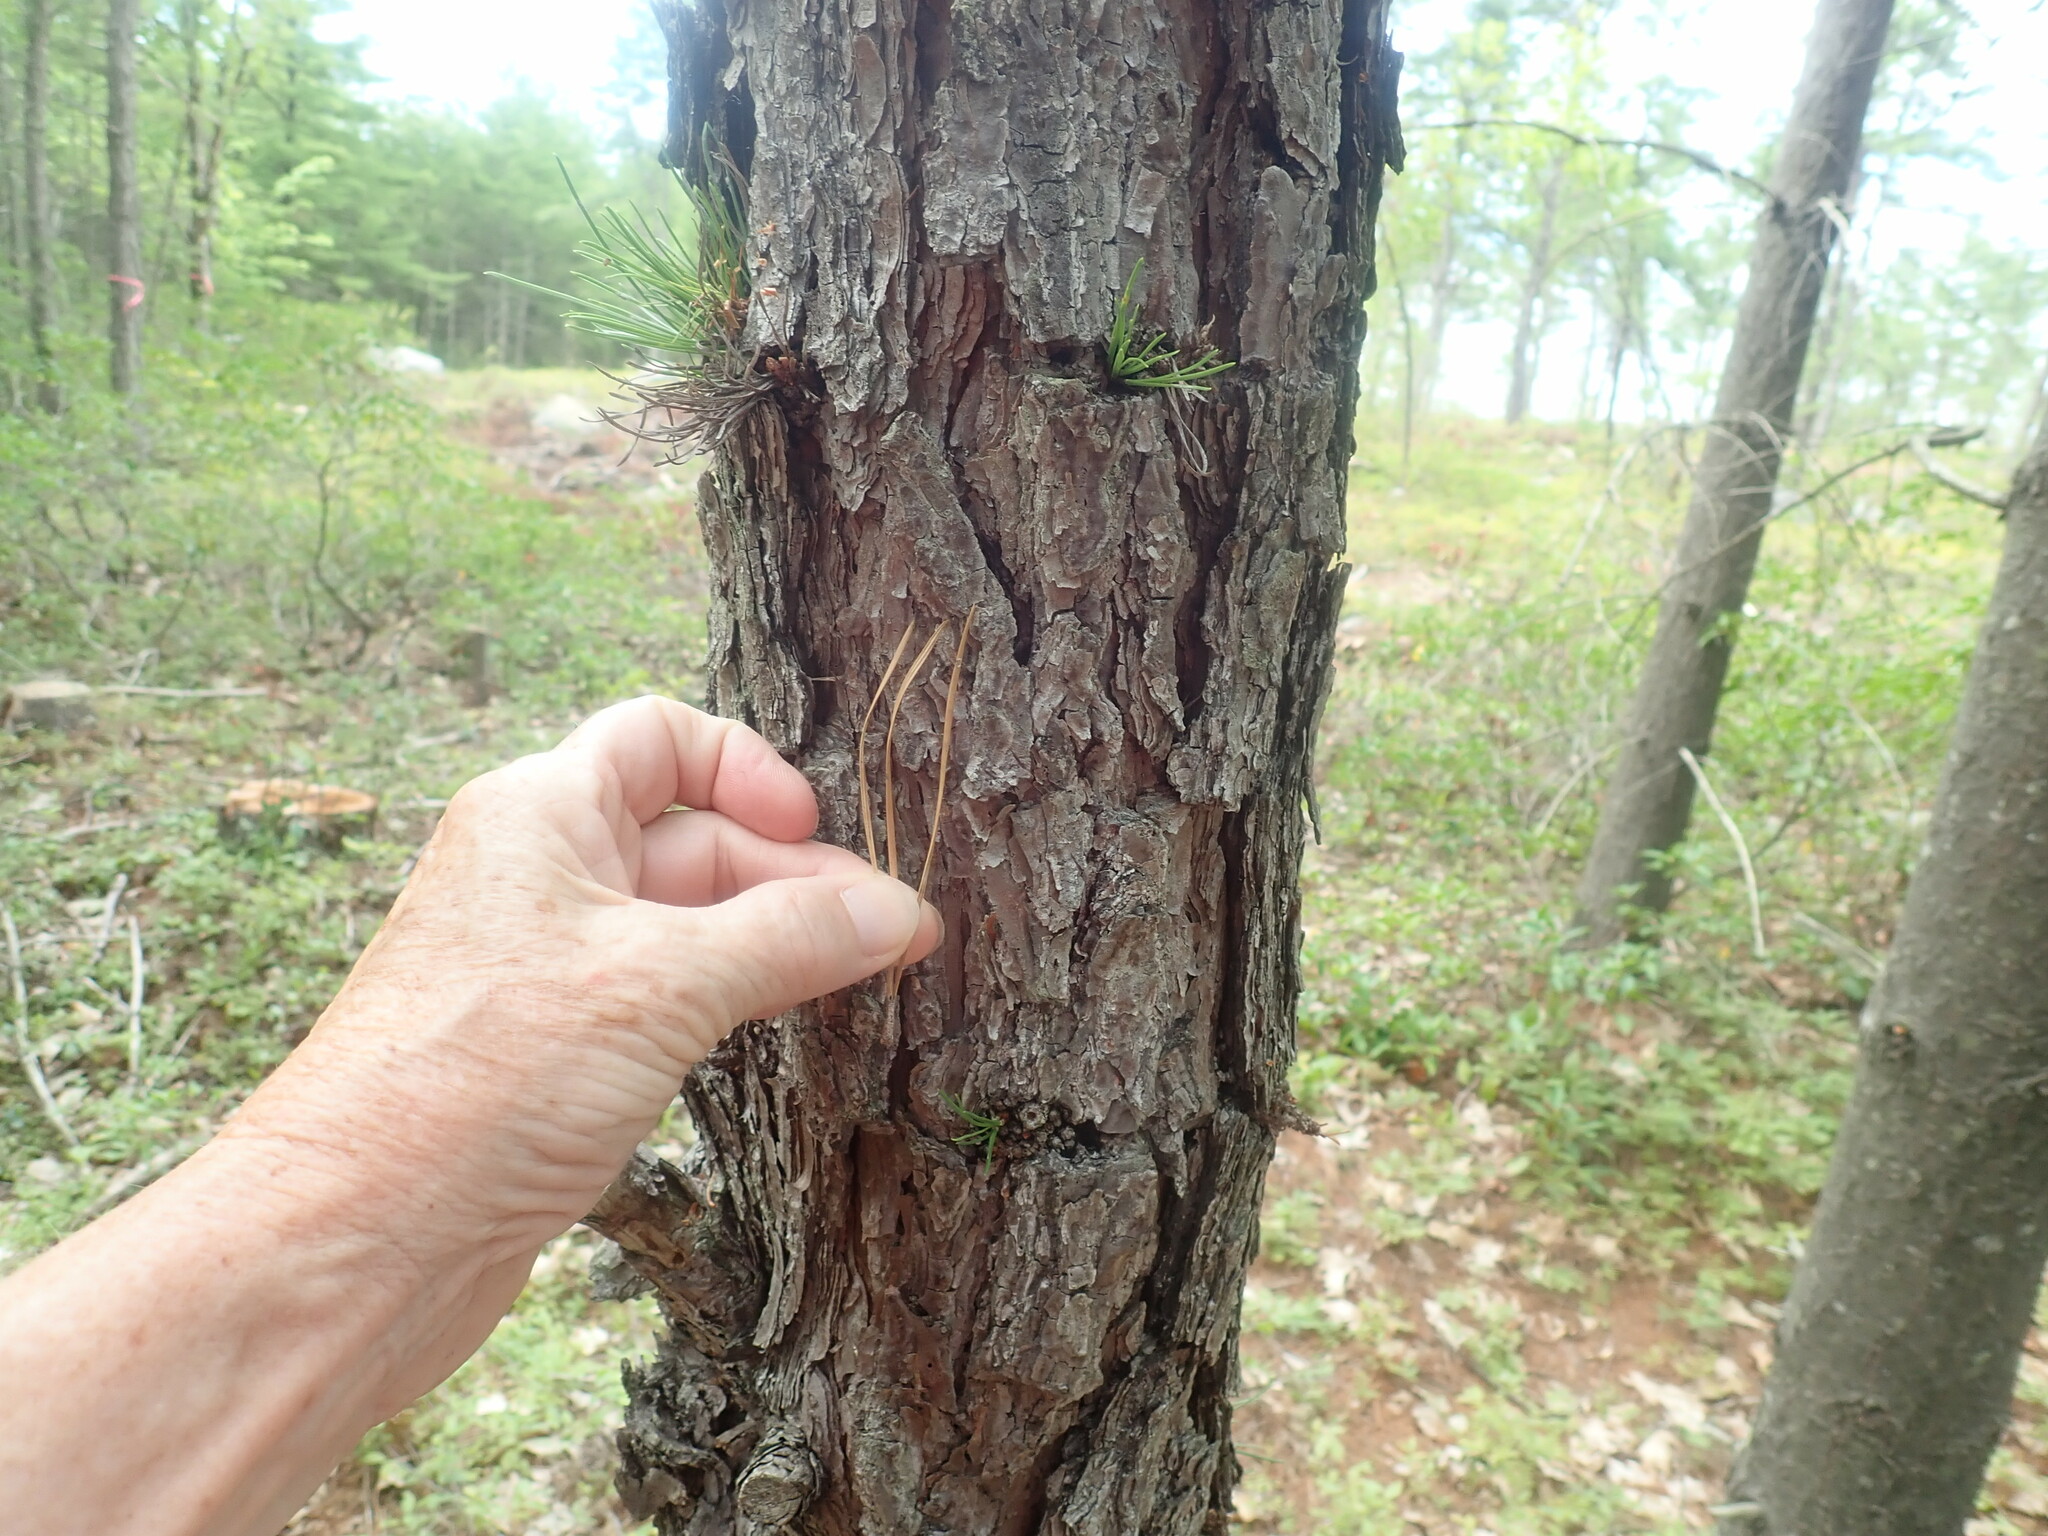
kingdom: Plantae
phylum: Tracheophyta
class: Pinopsida
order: Pinales
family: Pinaceae
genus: Pinus
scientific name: Pinus rigida
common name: Pitch pine
